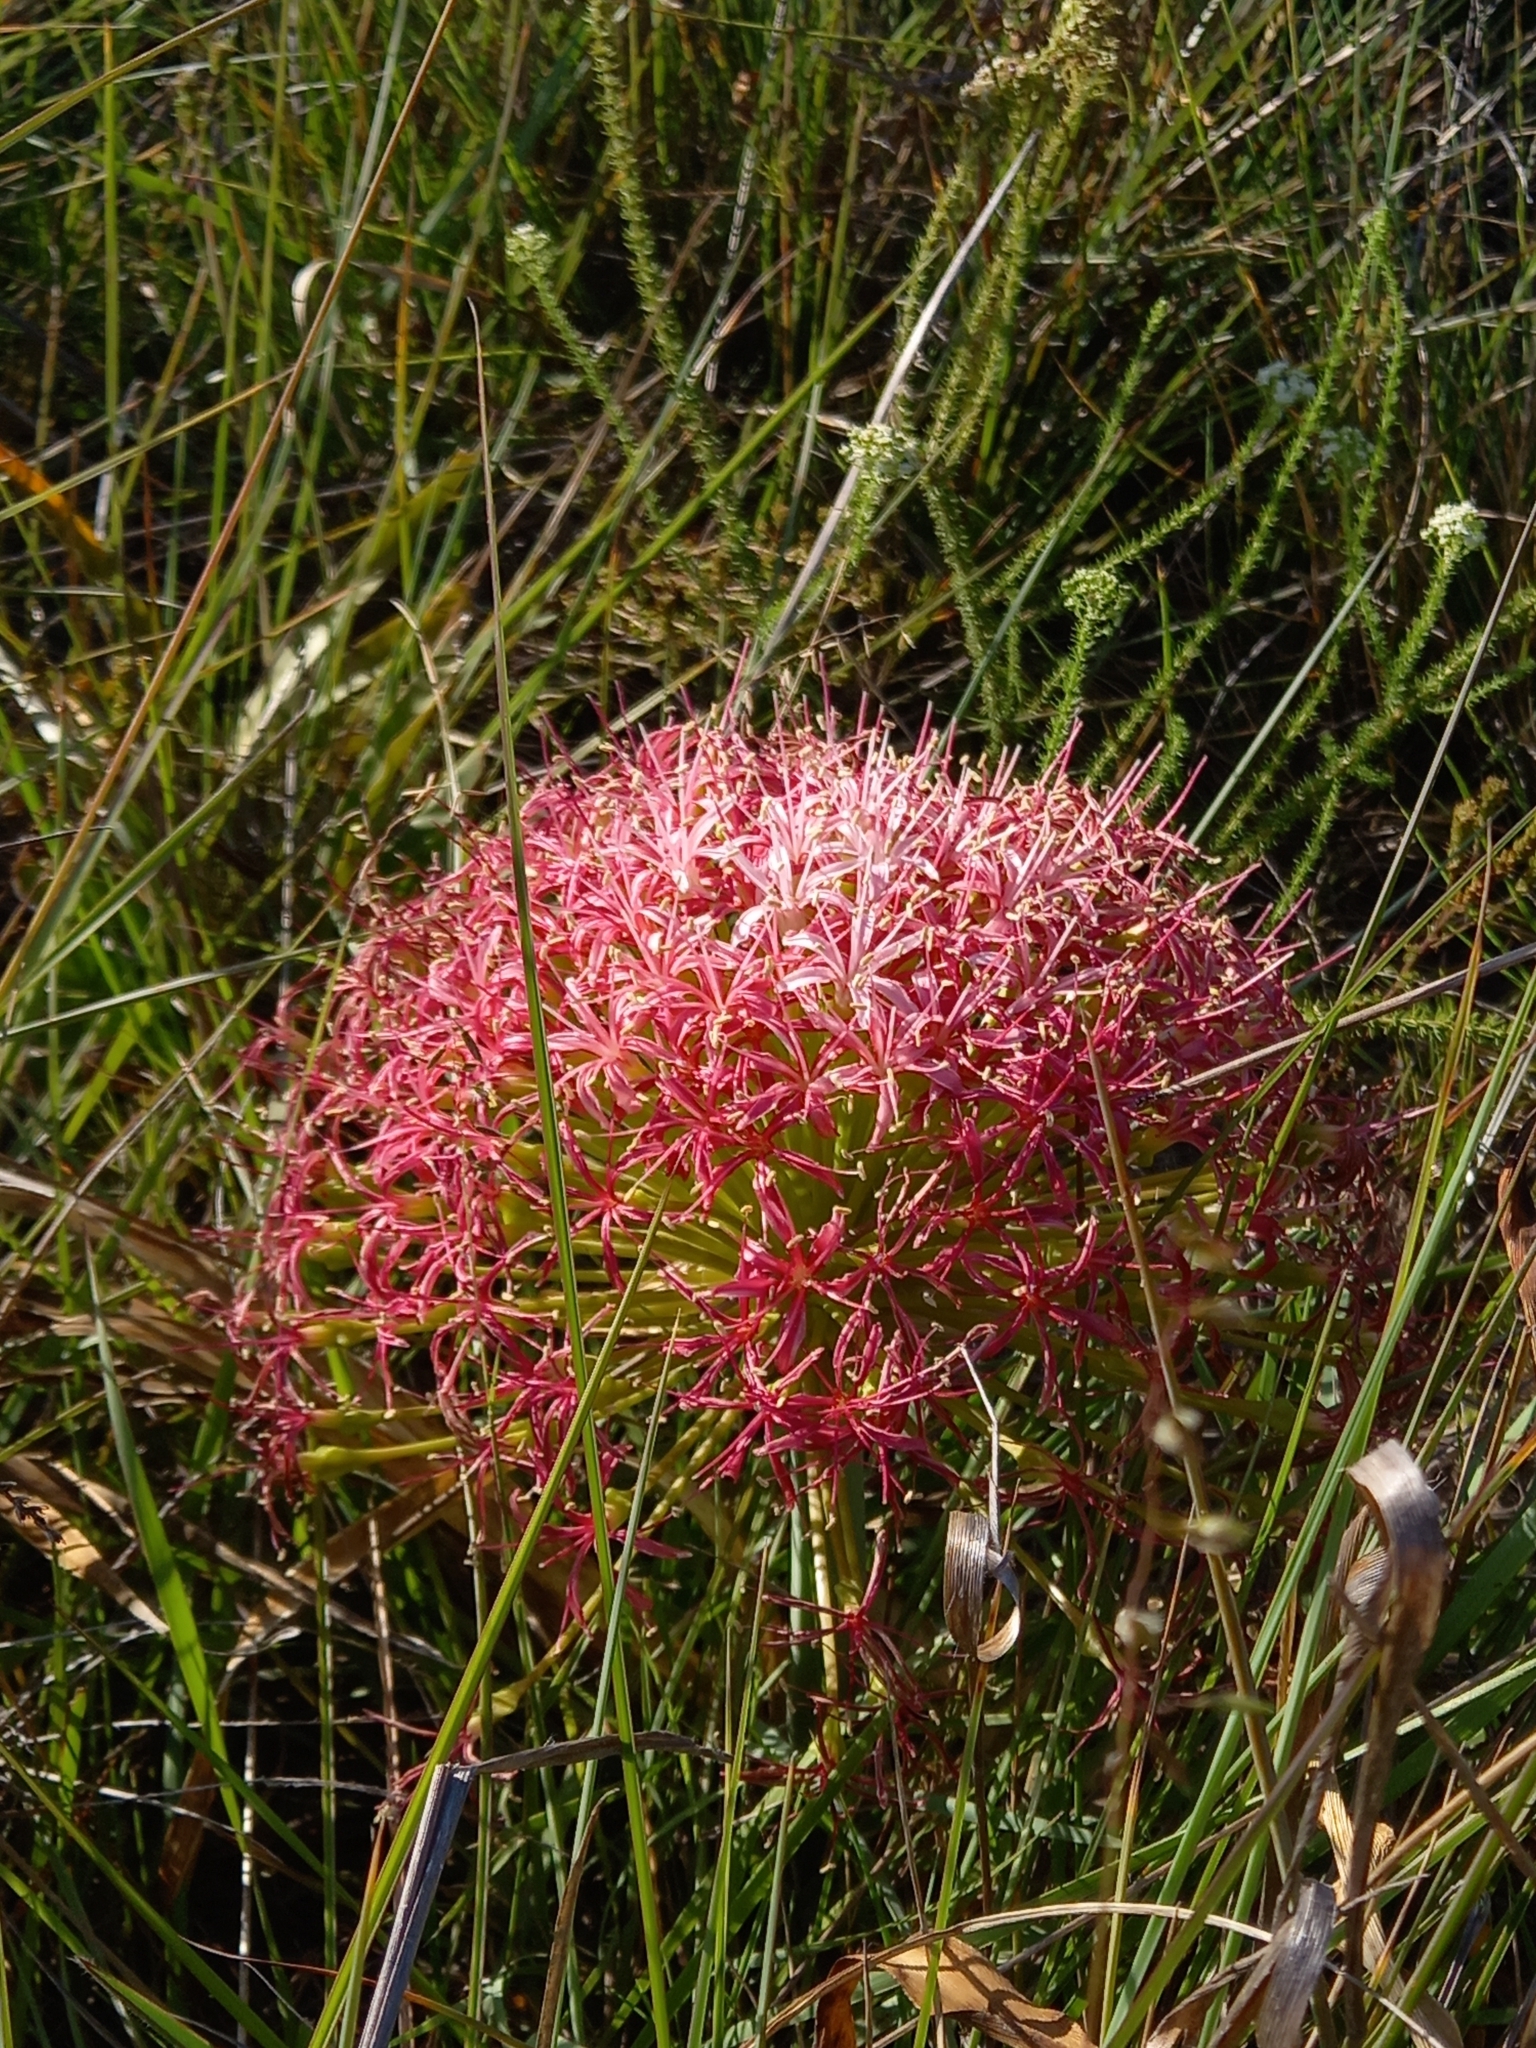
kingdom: Plantae
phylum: Tracheophyta
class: Liliopsida
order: Asparagales
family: Amaryllidaceae
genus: Boophone
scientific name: Boophone disticha
